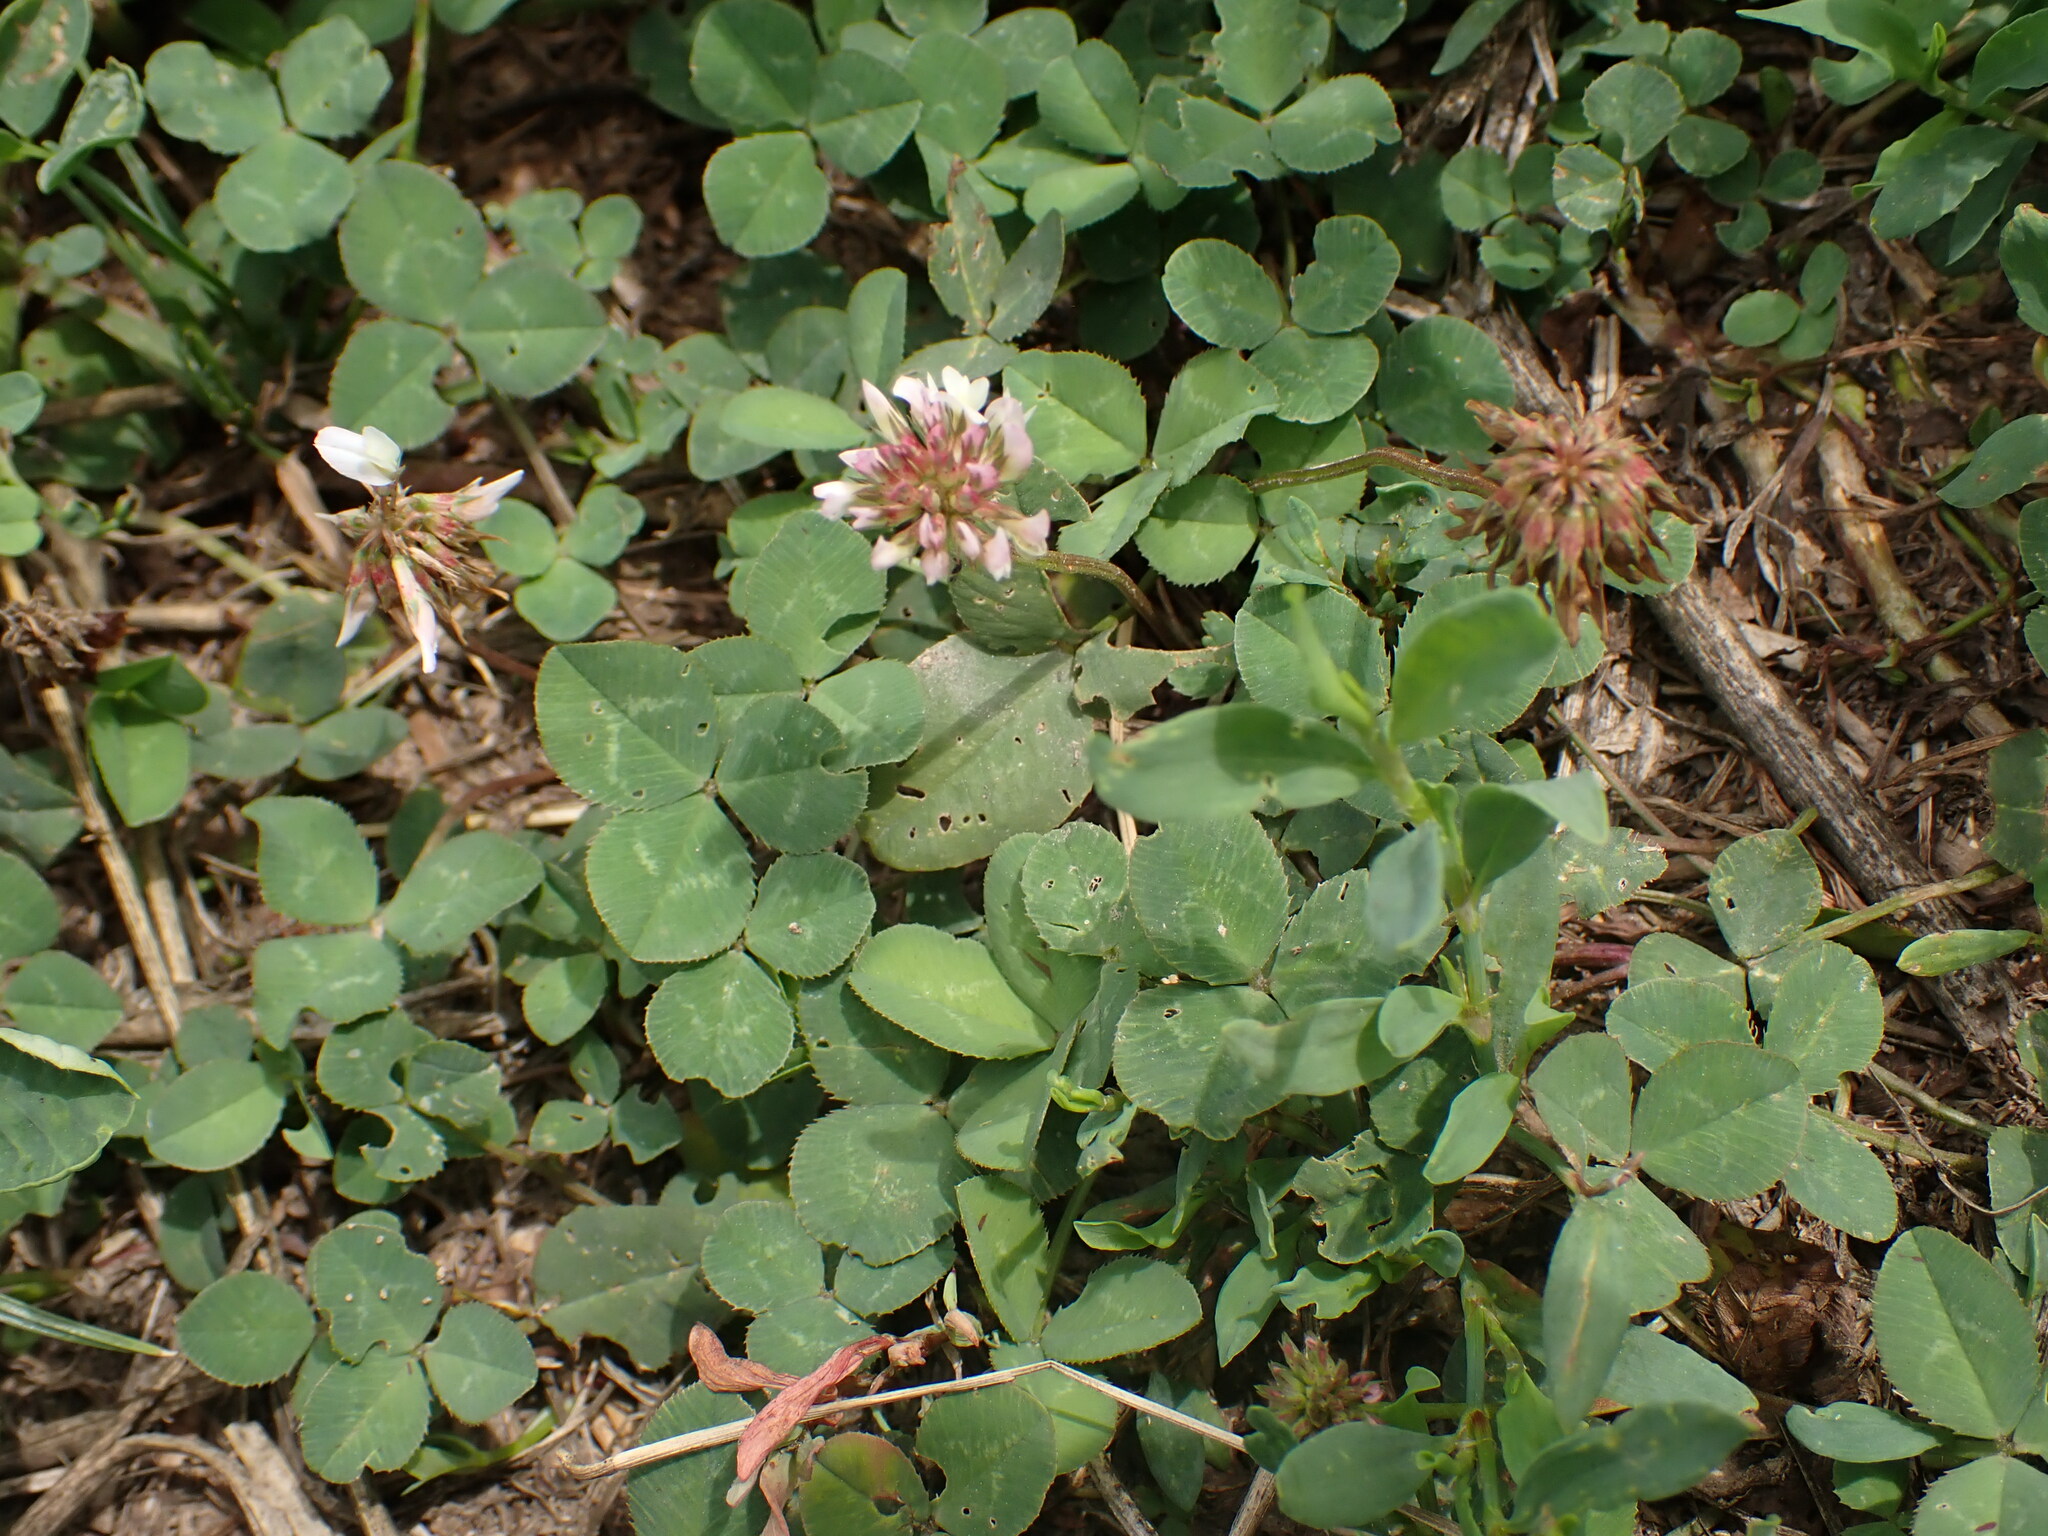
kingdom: Plantae
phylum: Tracheophyta
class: Magnoliopsida
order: Fabales
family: Fabaceae
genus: Trifolium
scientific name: Trifolium repens
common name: White clover
